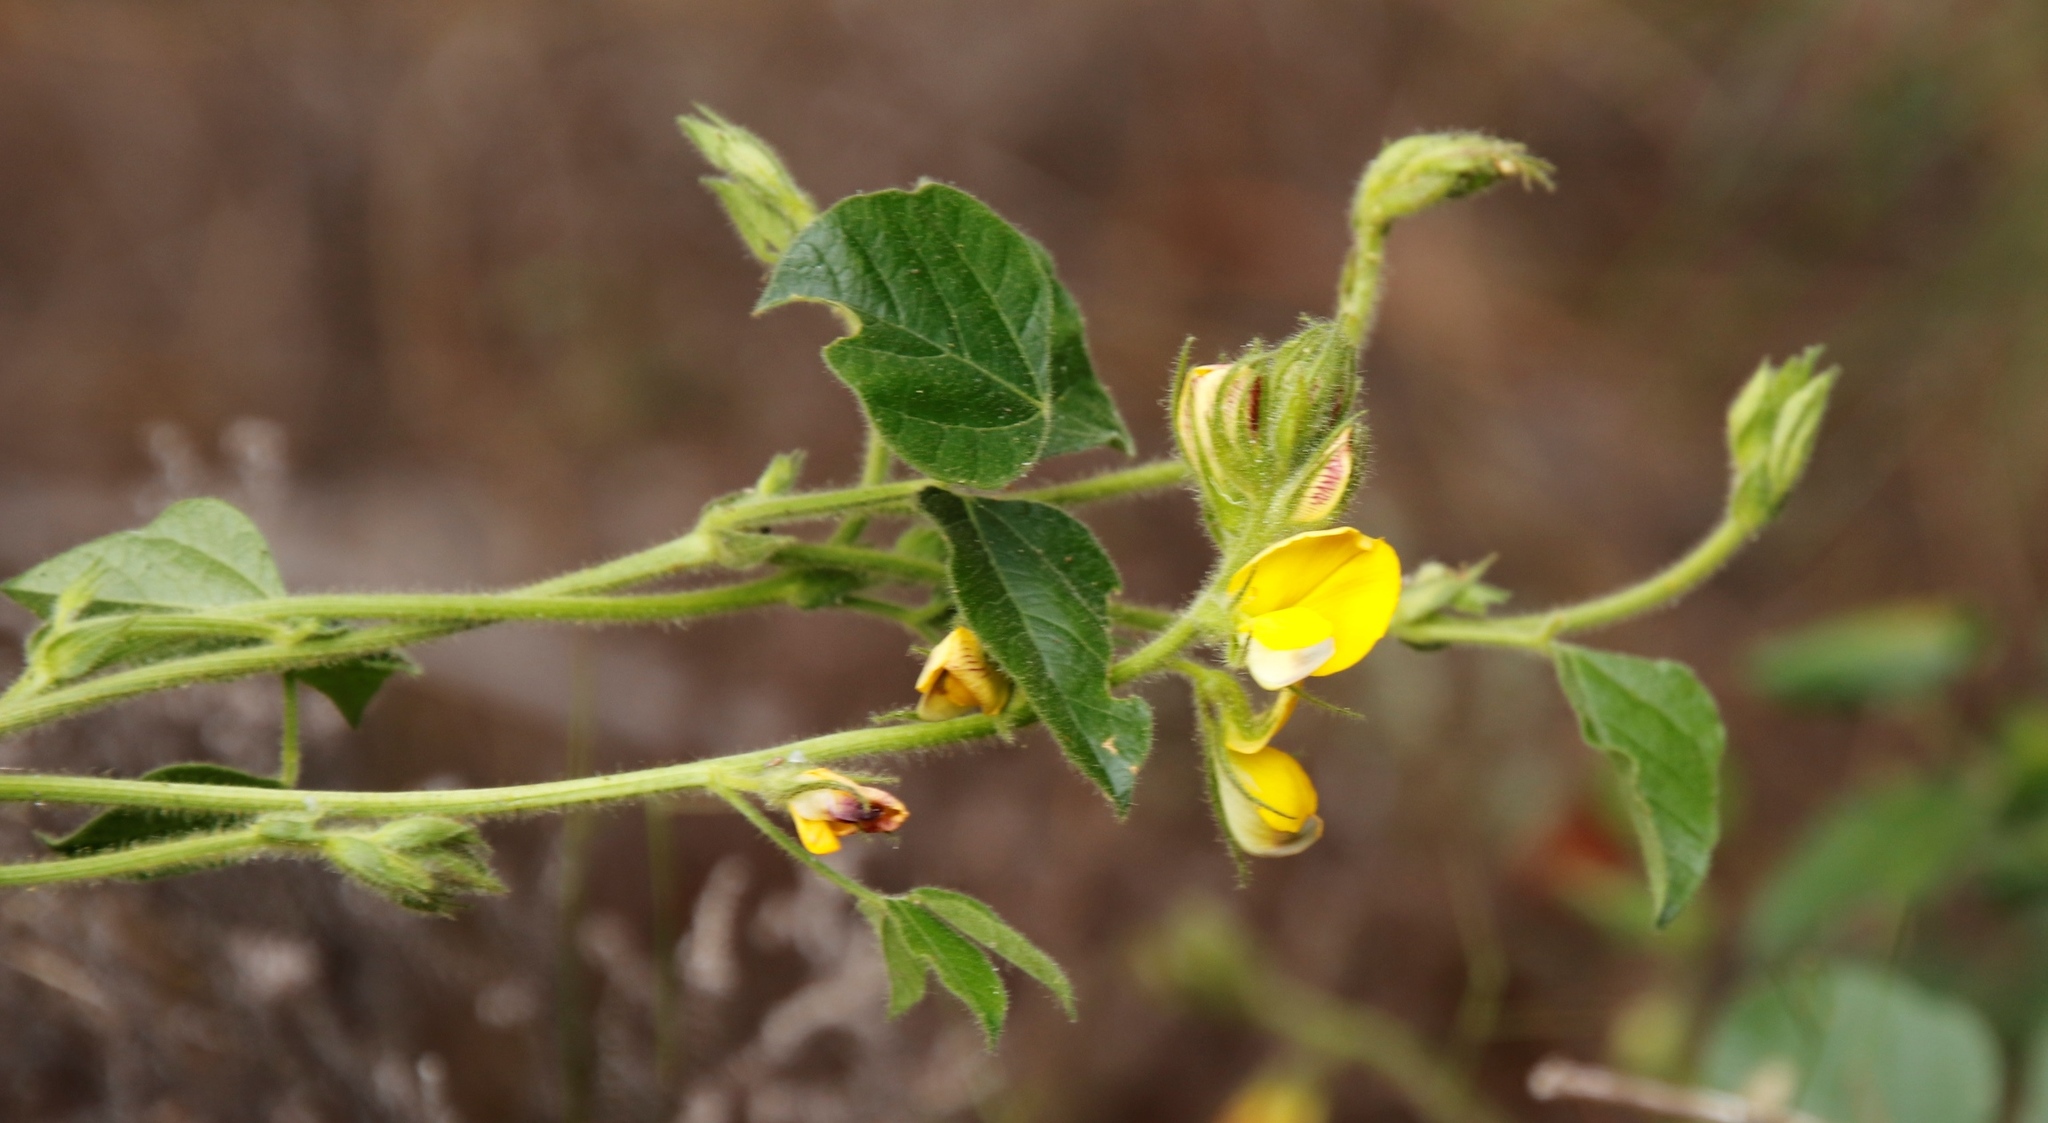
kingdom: Plantae
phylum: Tracheophyta
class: Magnoliopsida
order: Fabales
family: Fabaceae
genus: Bolusafra
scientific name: Bolusafra bituminosa
